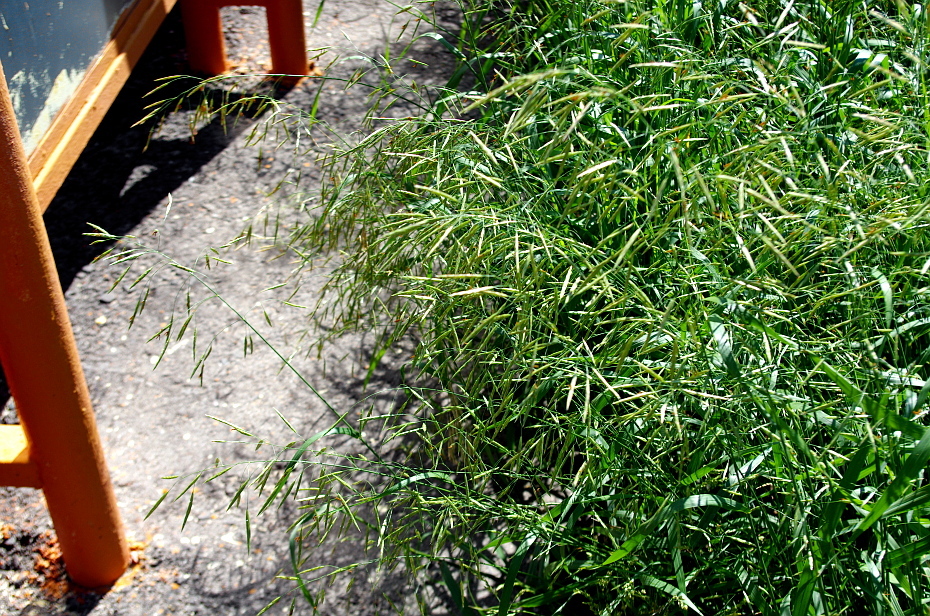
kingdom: Plantae
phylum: Tracheophyta
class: Liliopsida
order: Poales
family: Poaceae
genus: Bromus
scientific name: Bromus inermis
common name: Smooth brome
